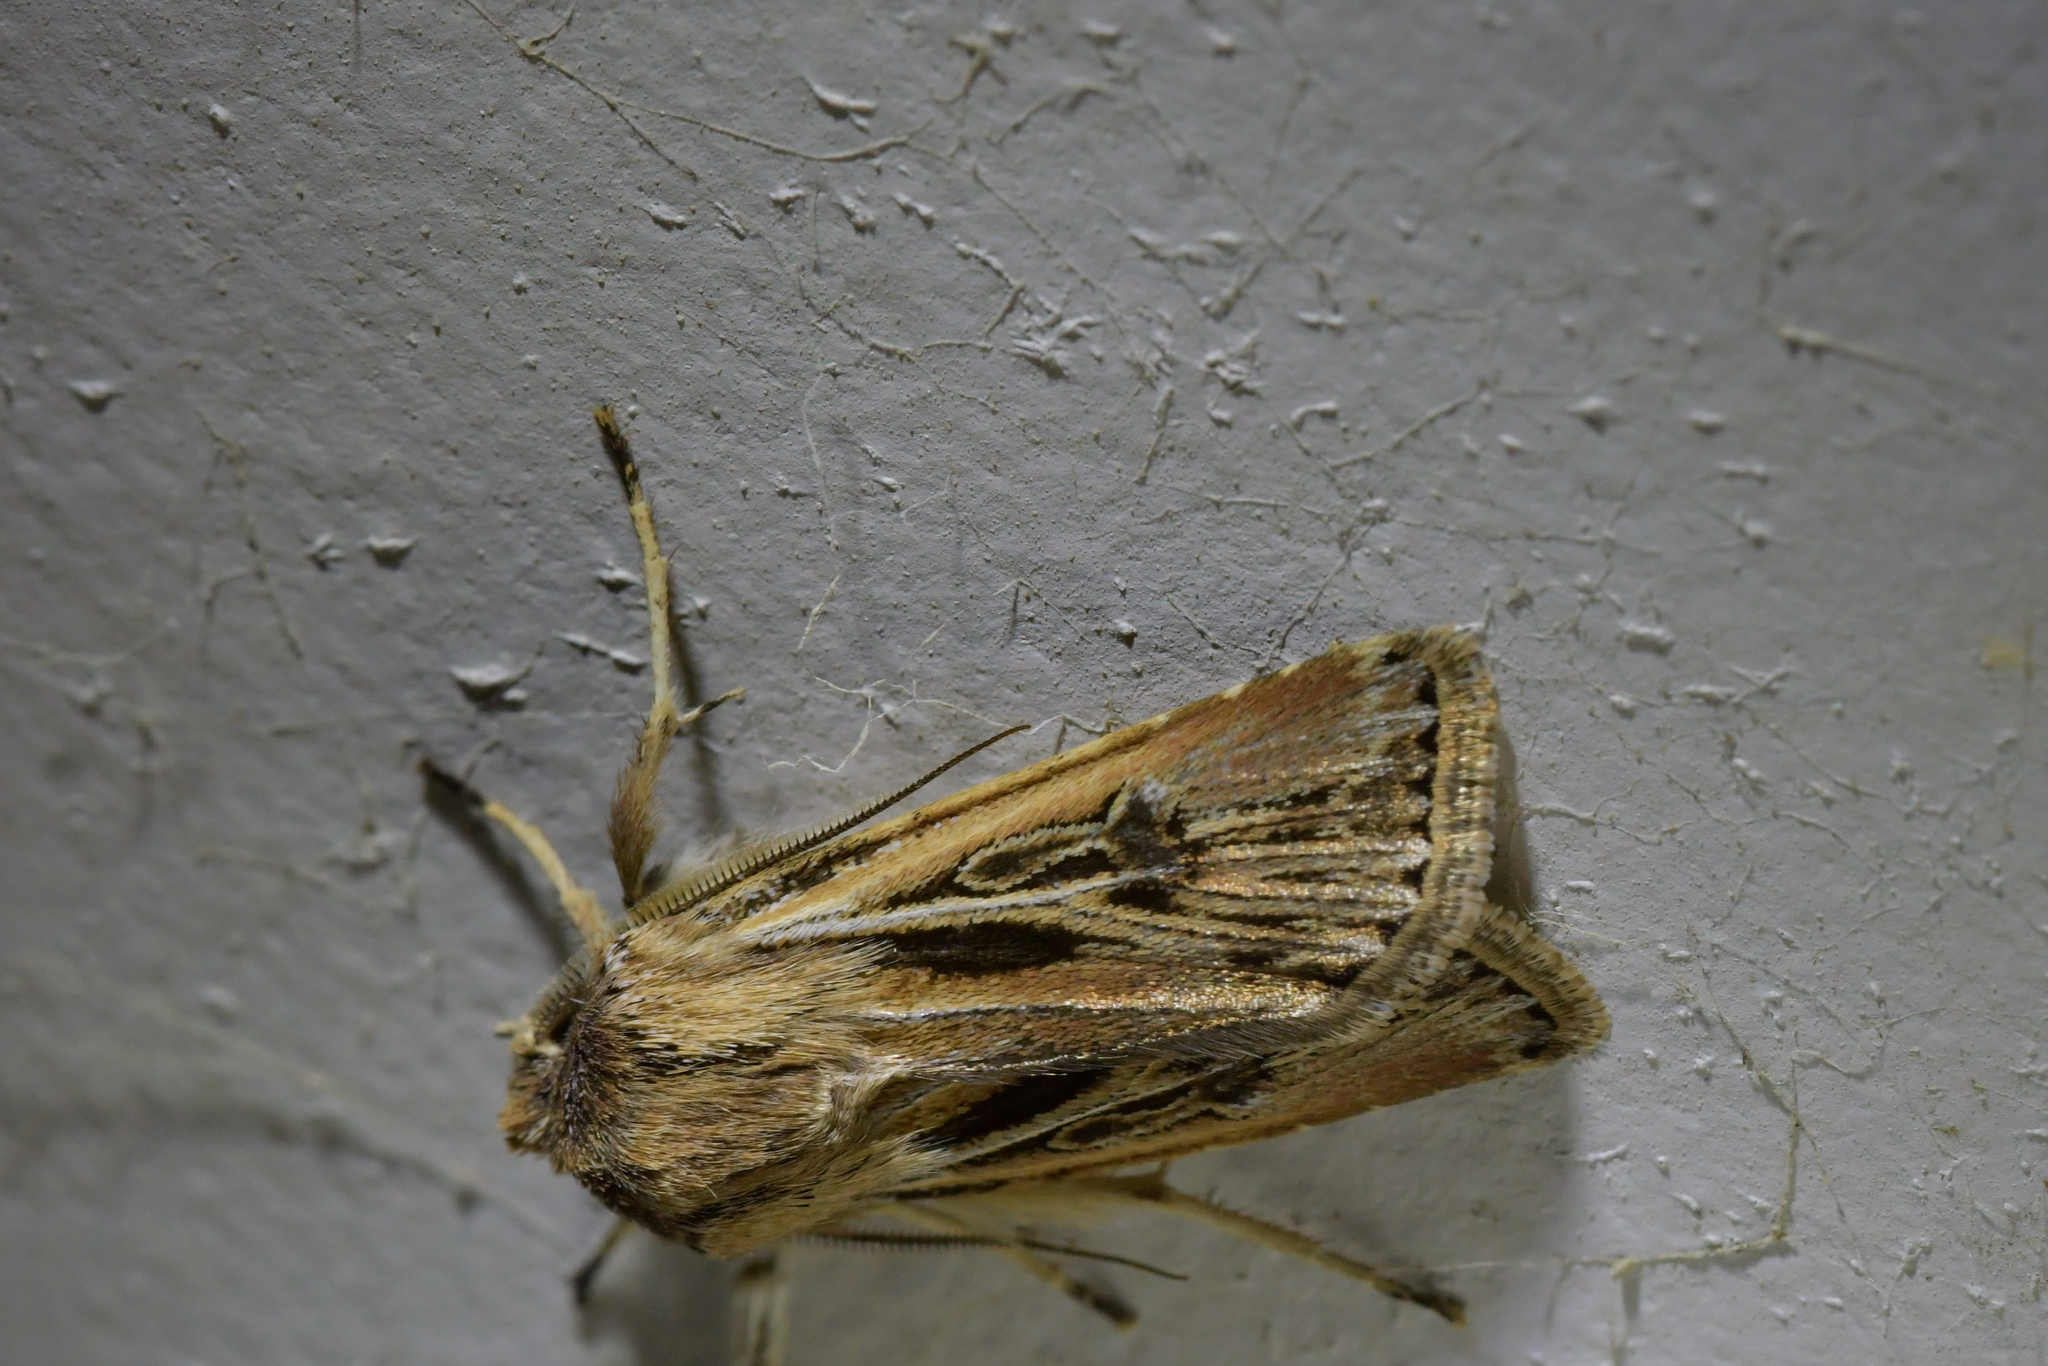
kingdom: Animalia
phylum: Arthropoda
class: Insecta
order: Lepidoptera
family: Noctuidae
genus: Agrotis
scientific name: Agrotis innominata
